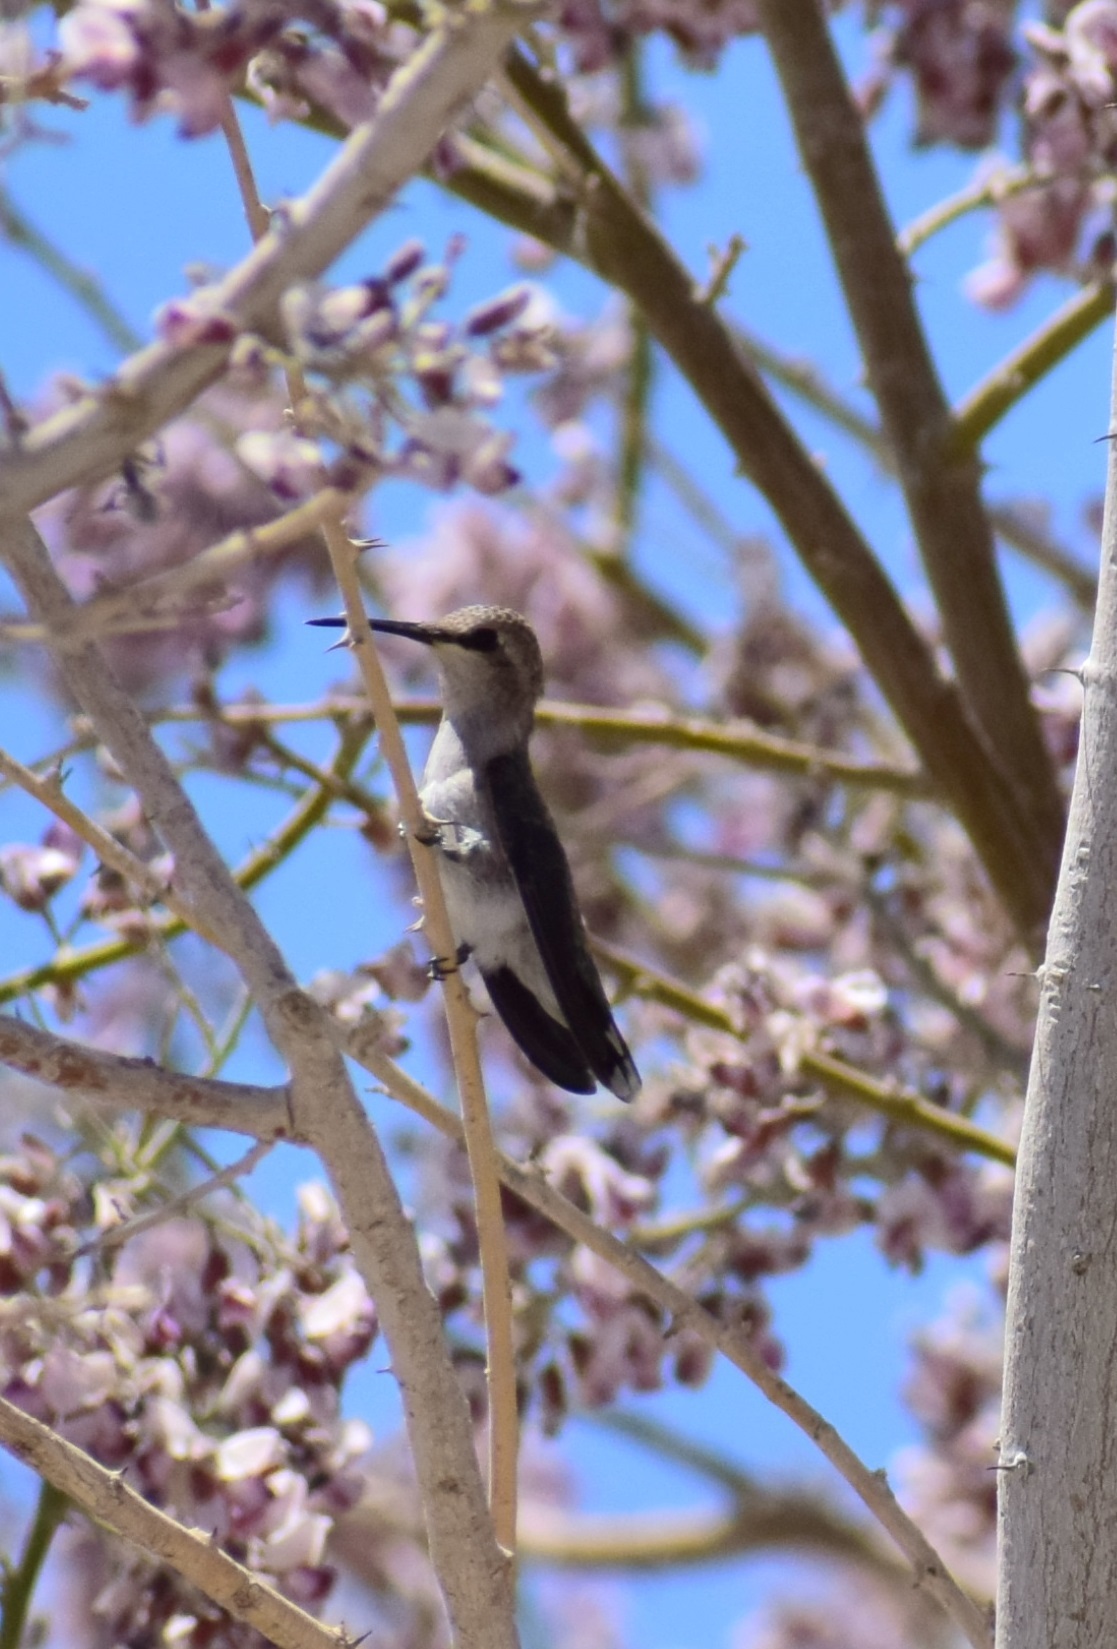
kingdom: Animalia
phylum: Chordata
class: Aves
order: Apodiformes
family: Trochilidae
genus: Calypte
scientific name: Calypte costae
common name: Costa's hummingbird
